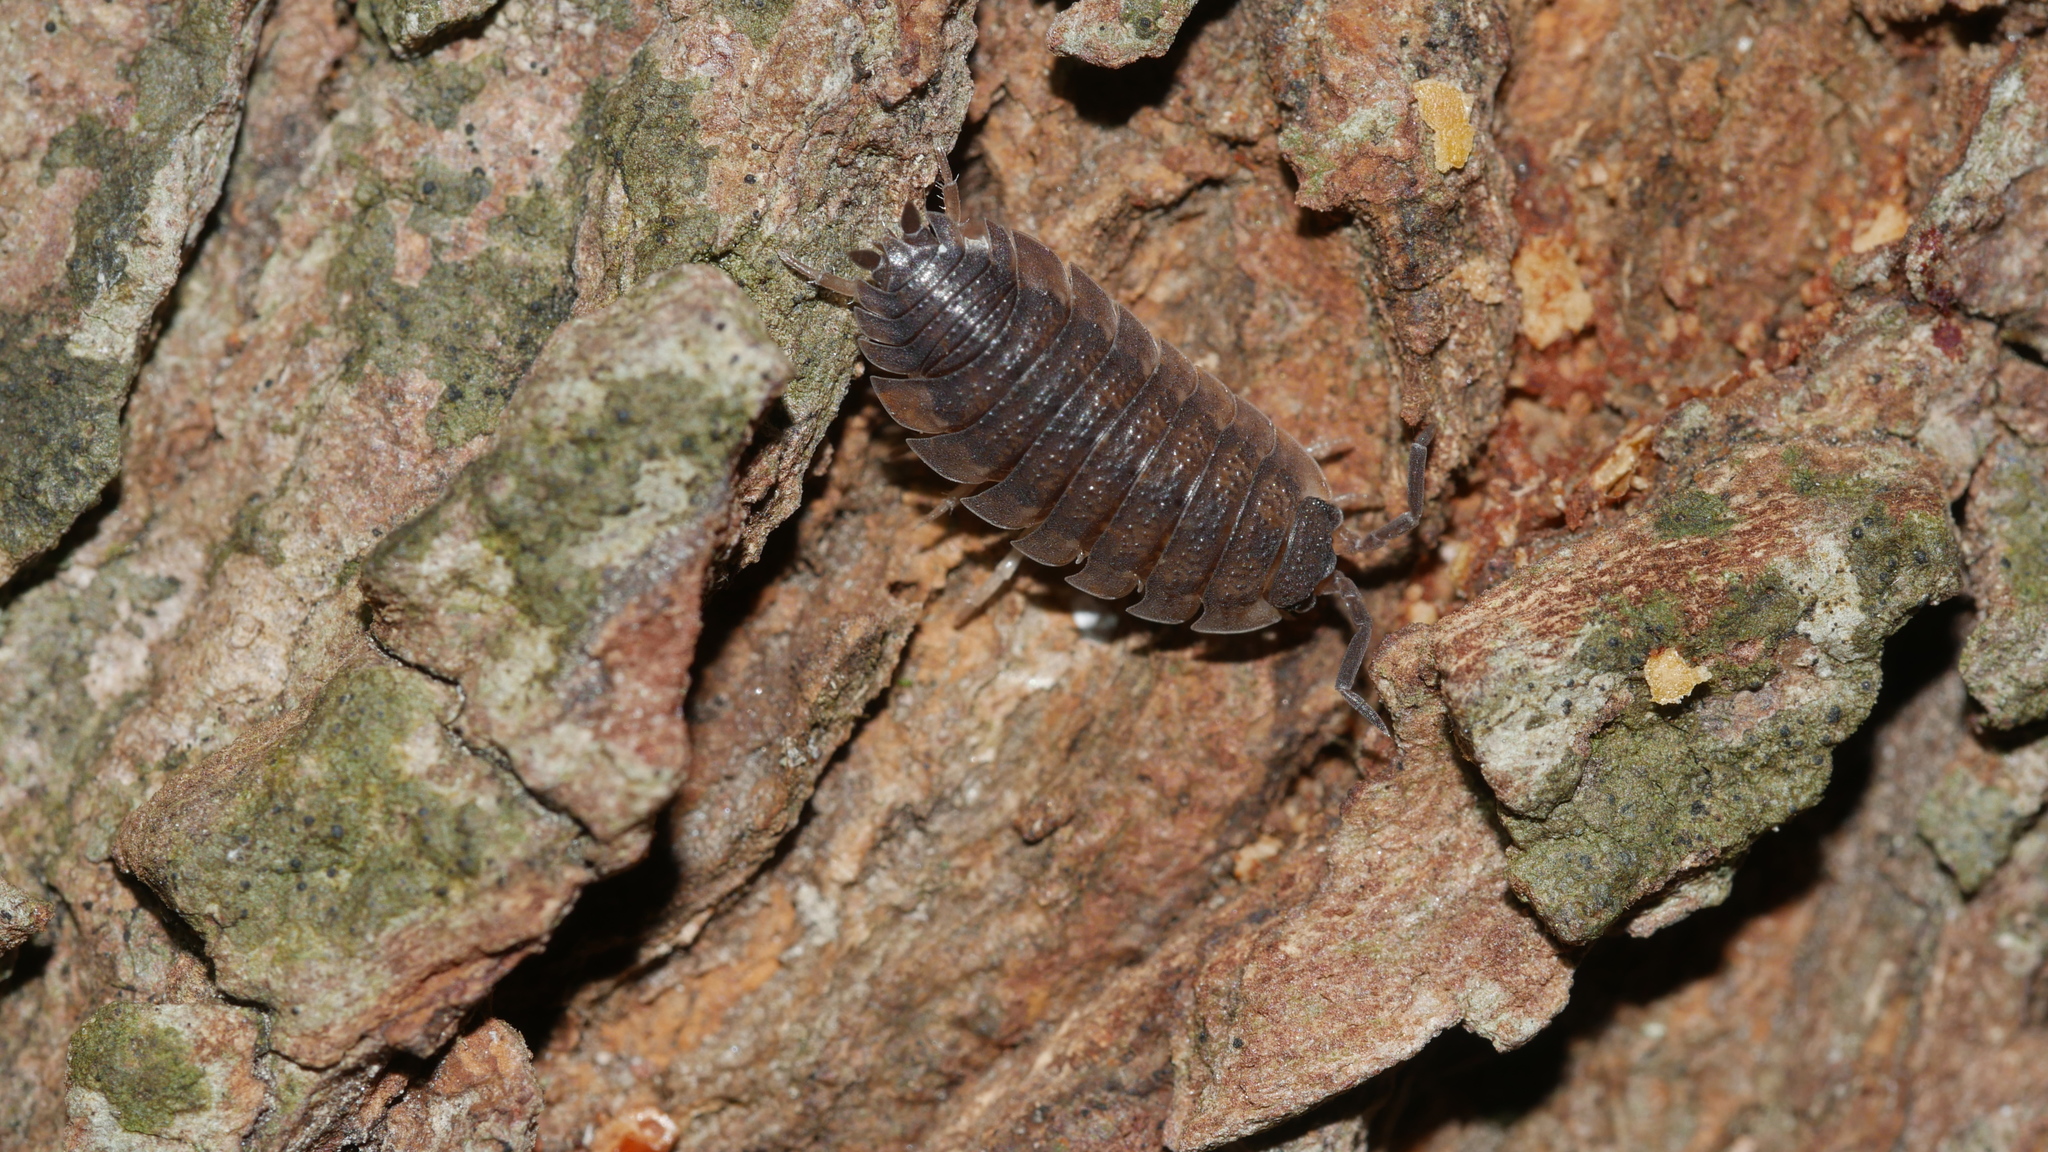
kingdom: Animalia
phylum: Arthropoda
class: Malacostraca
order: Isopoda
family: Porcellionidae
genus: Porcellio
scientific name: Porcellio scaber
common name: Common rough woodlouse
